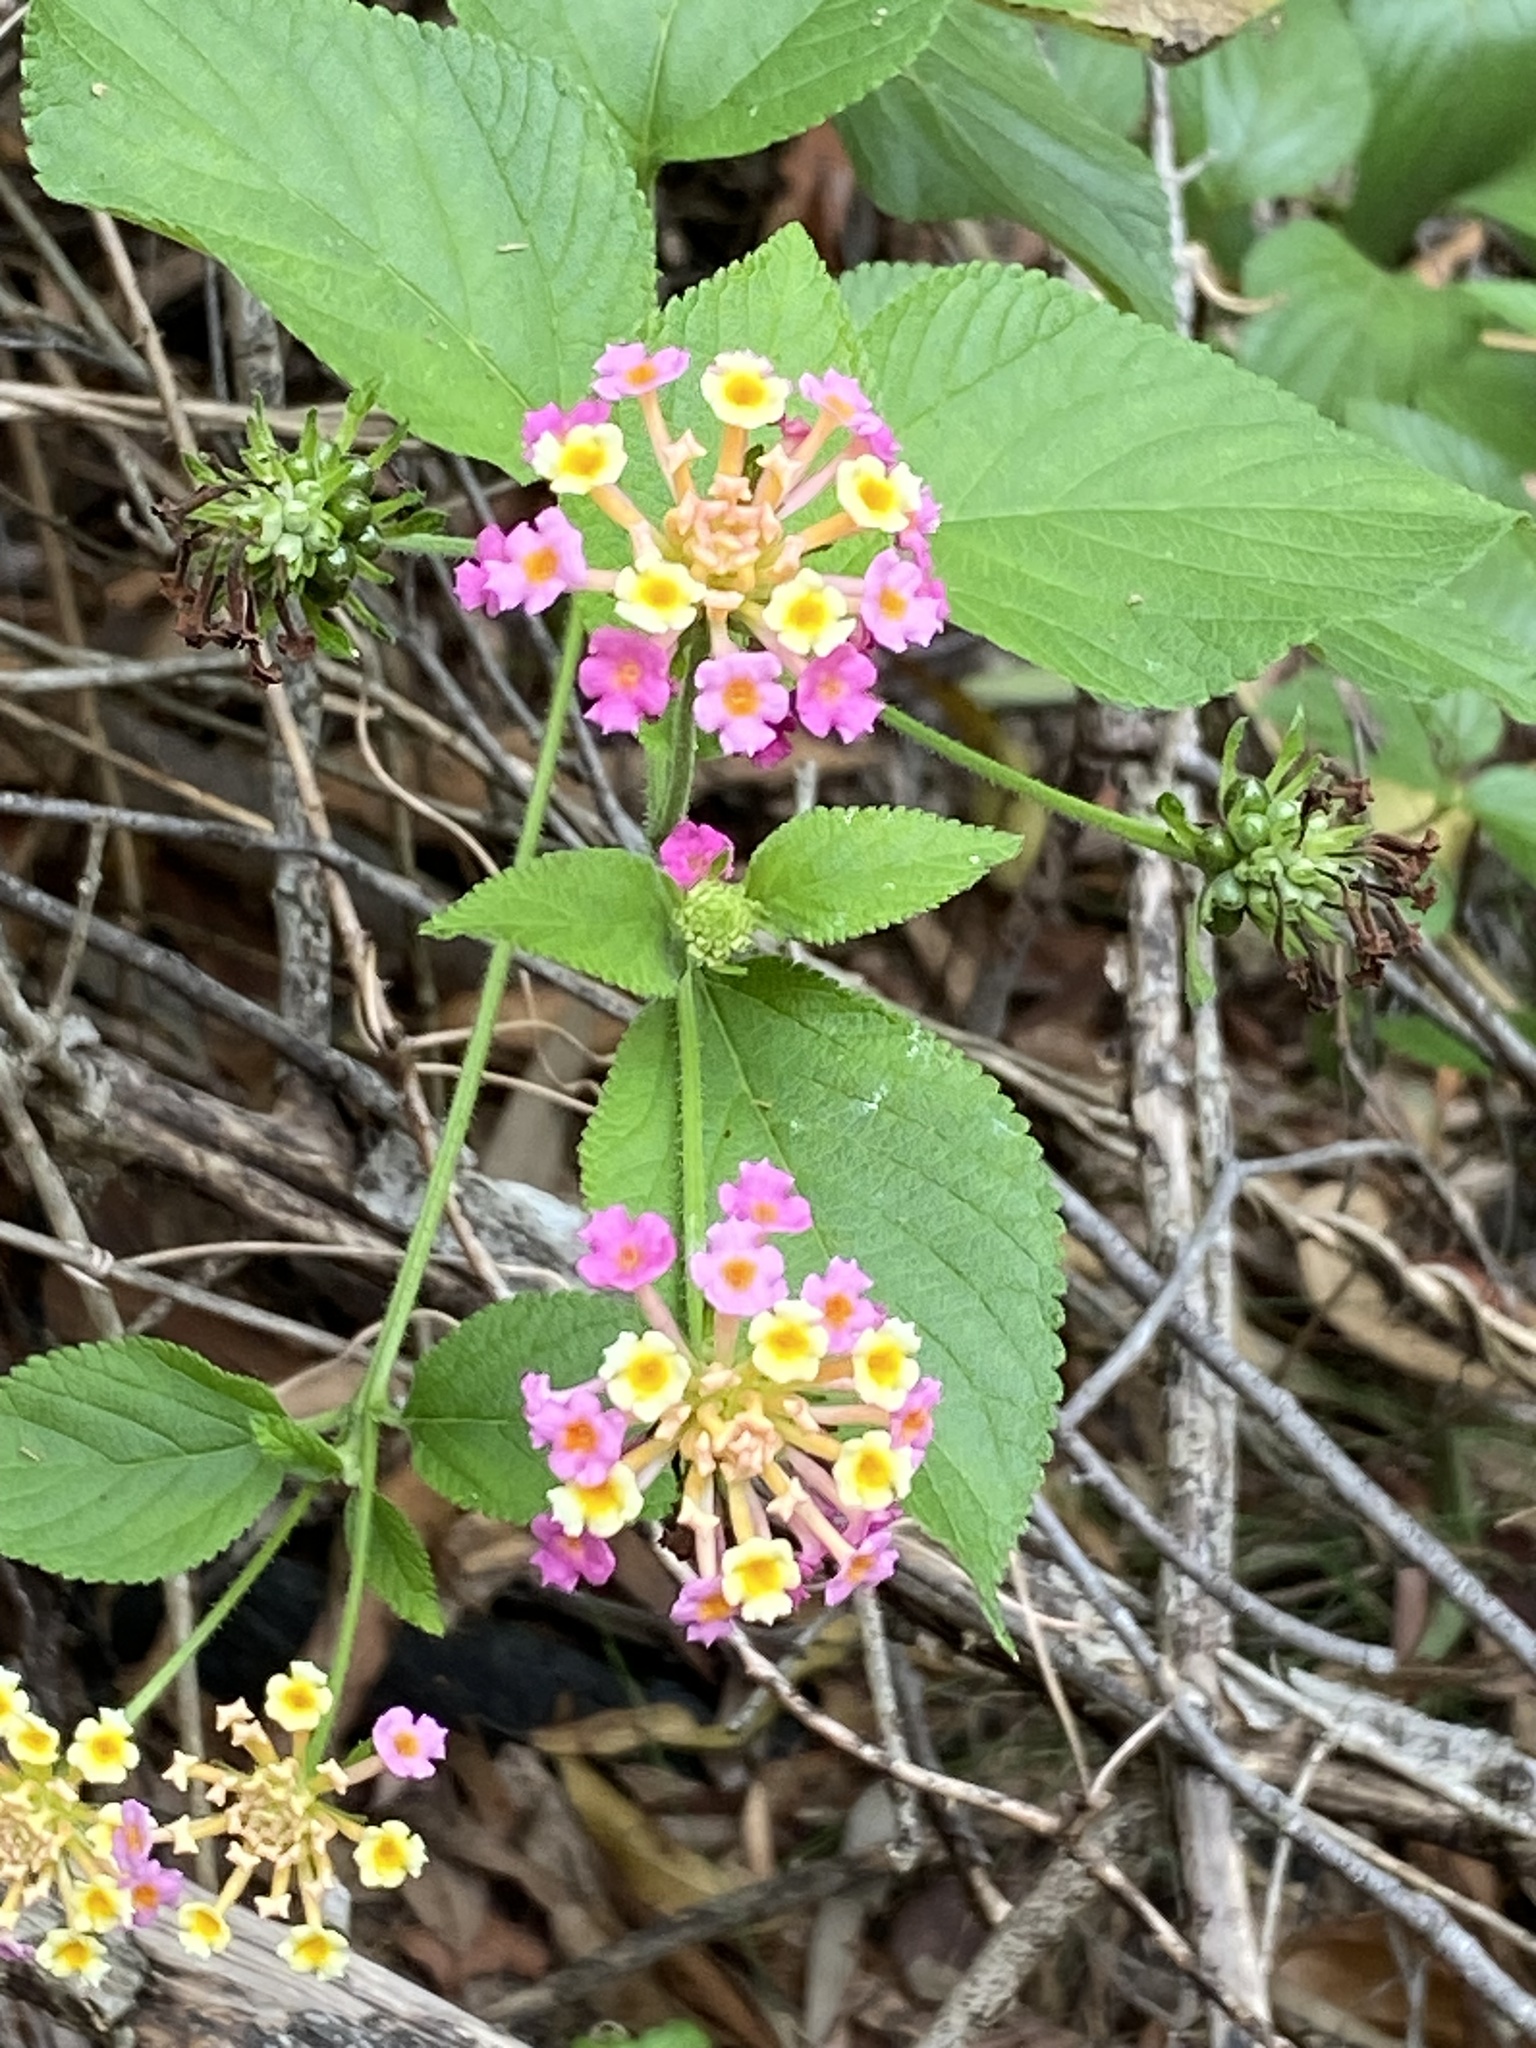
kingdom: Plantae
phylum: Tracheophyta
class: Magnoliopsida
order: Lamiales
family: Verbenaceae
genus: Lantana
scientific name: Lantana camara
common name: Lantana
